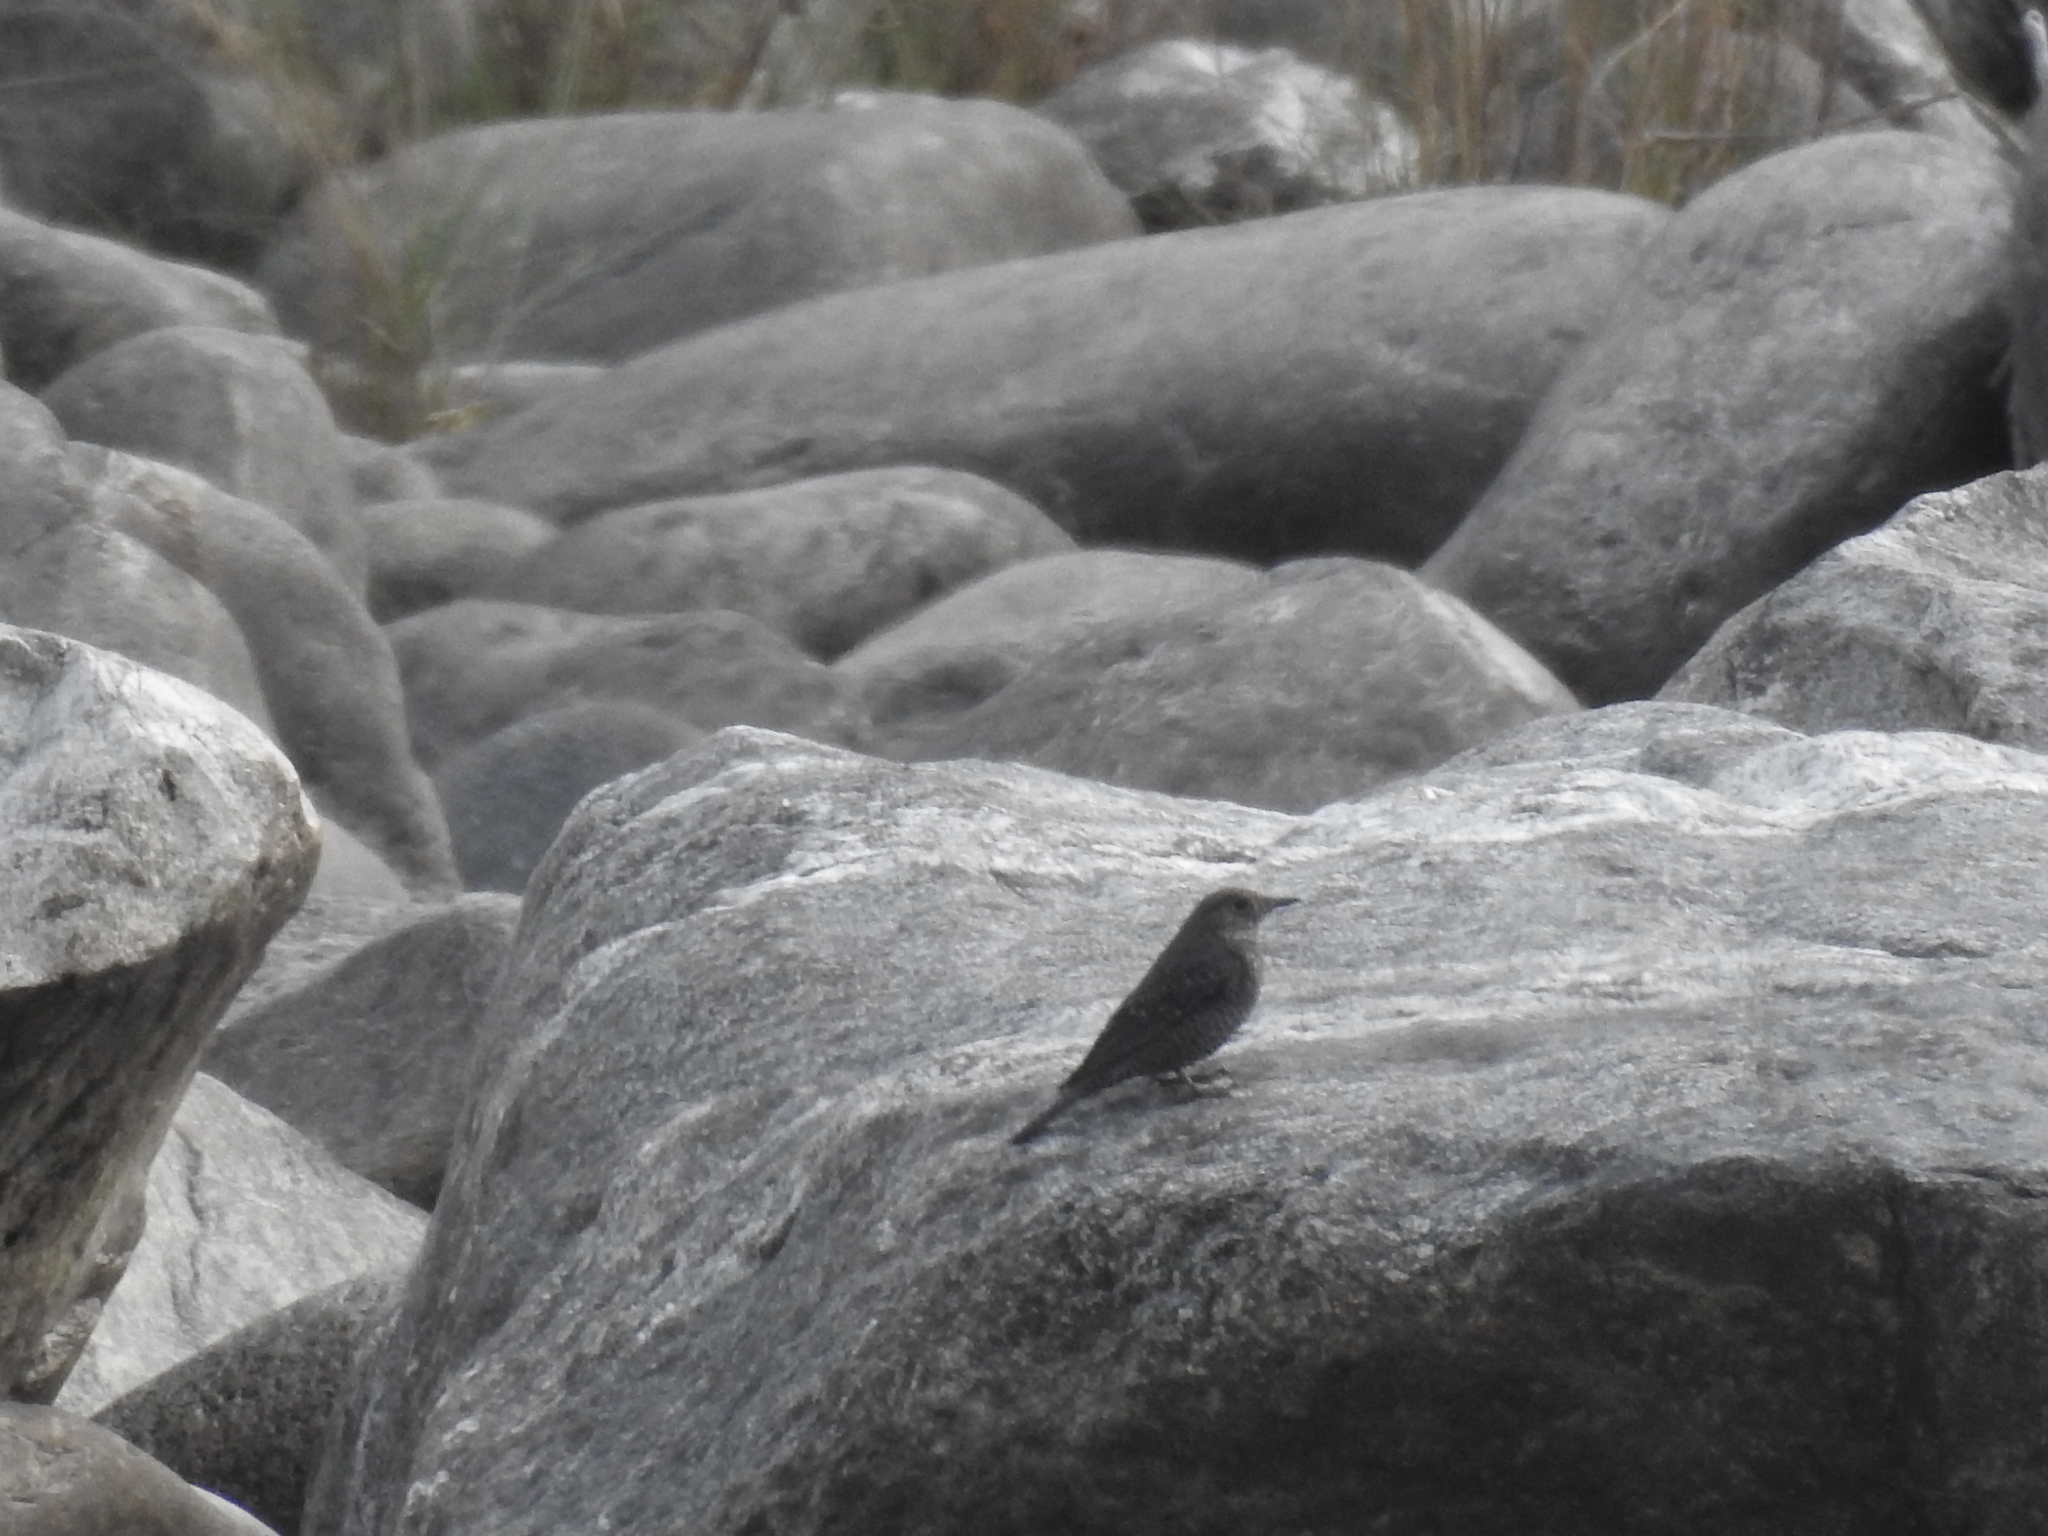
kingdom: Animalia
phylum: Chordata
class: Aves
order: Passeriformes
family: Muscicapidae
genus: Monticola
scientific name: Monticola solitarius
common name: Blue rock thrush
